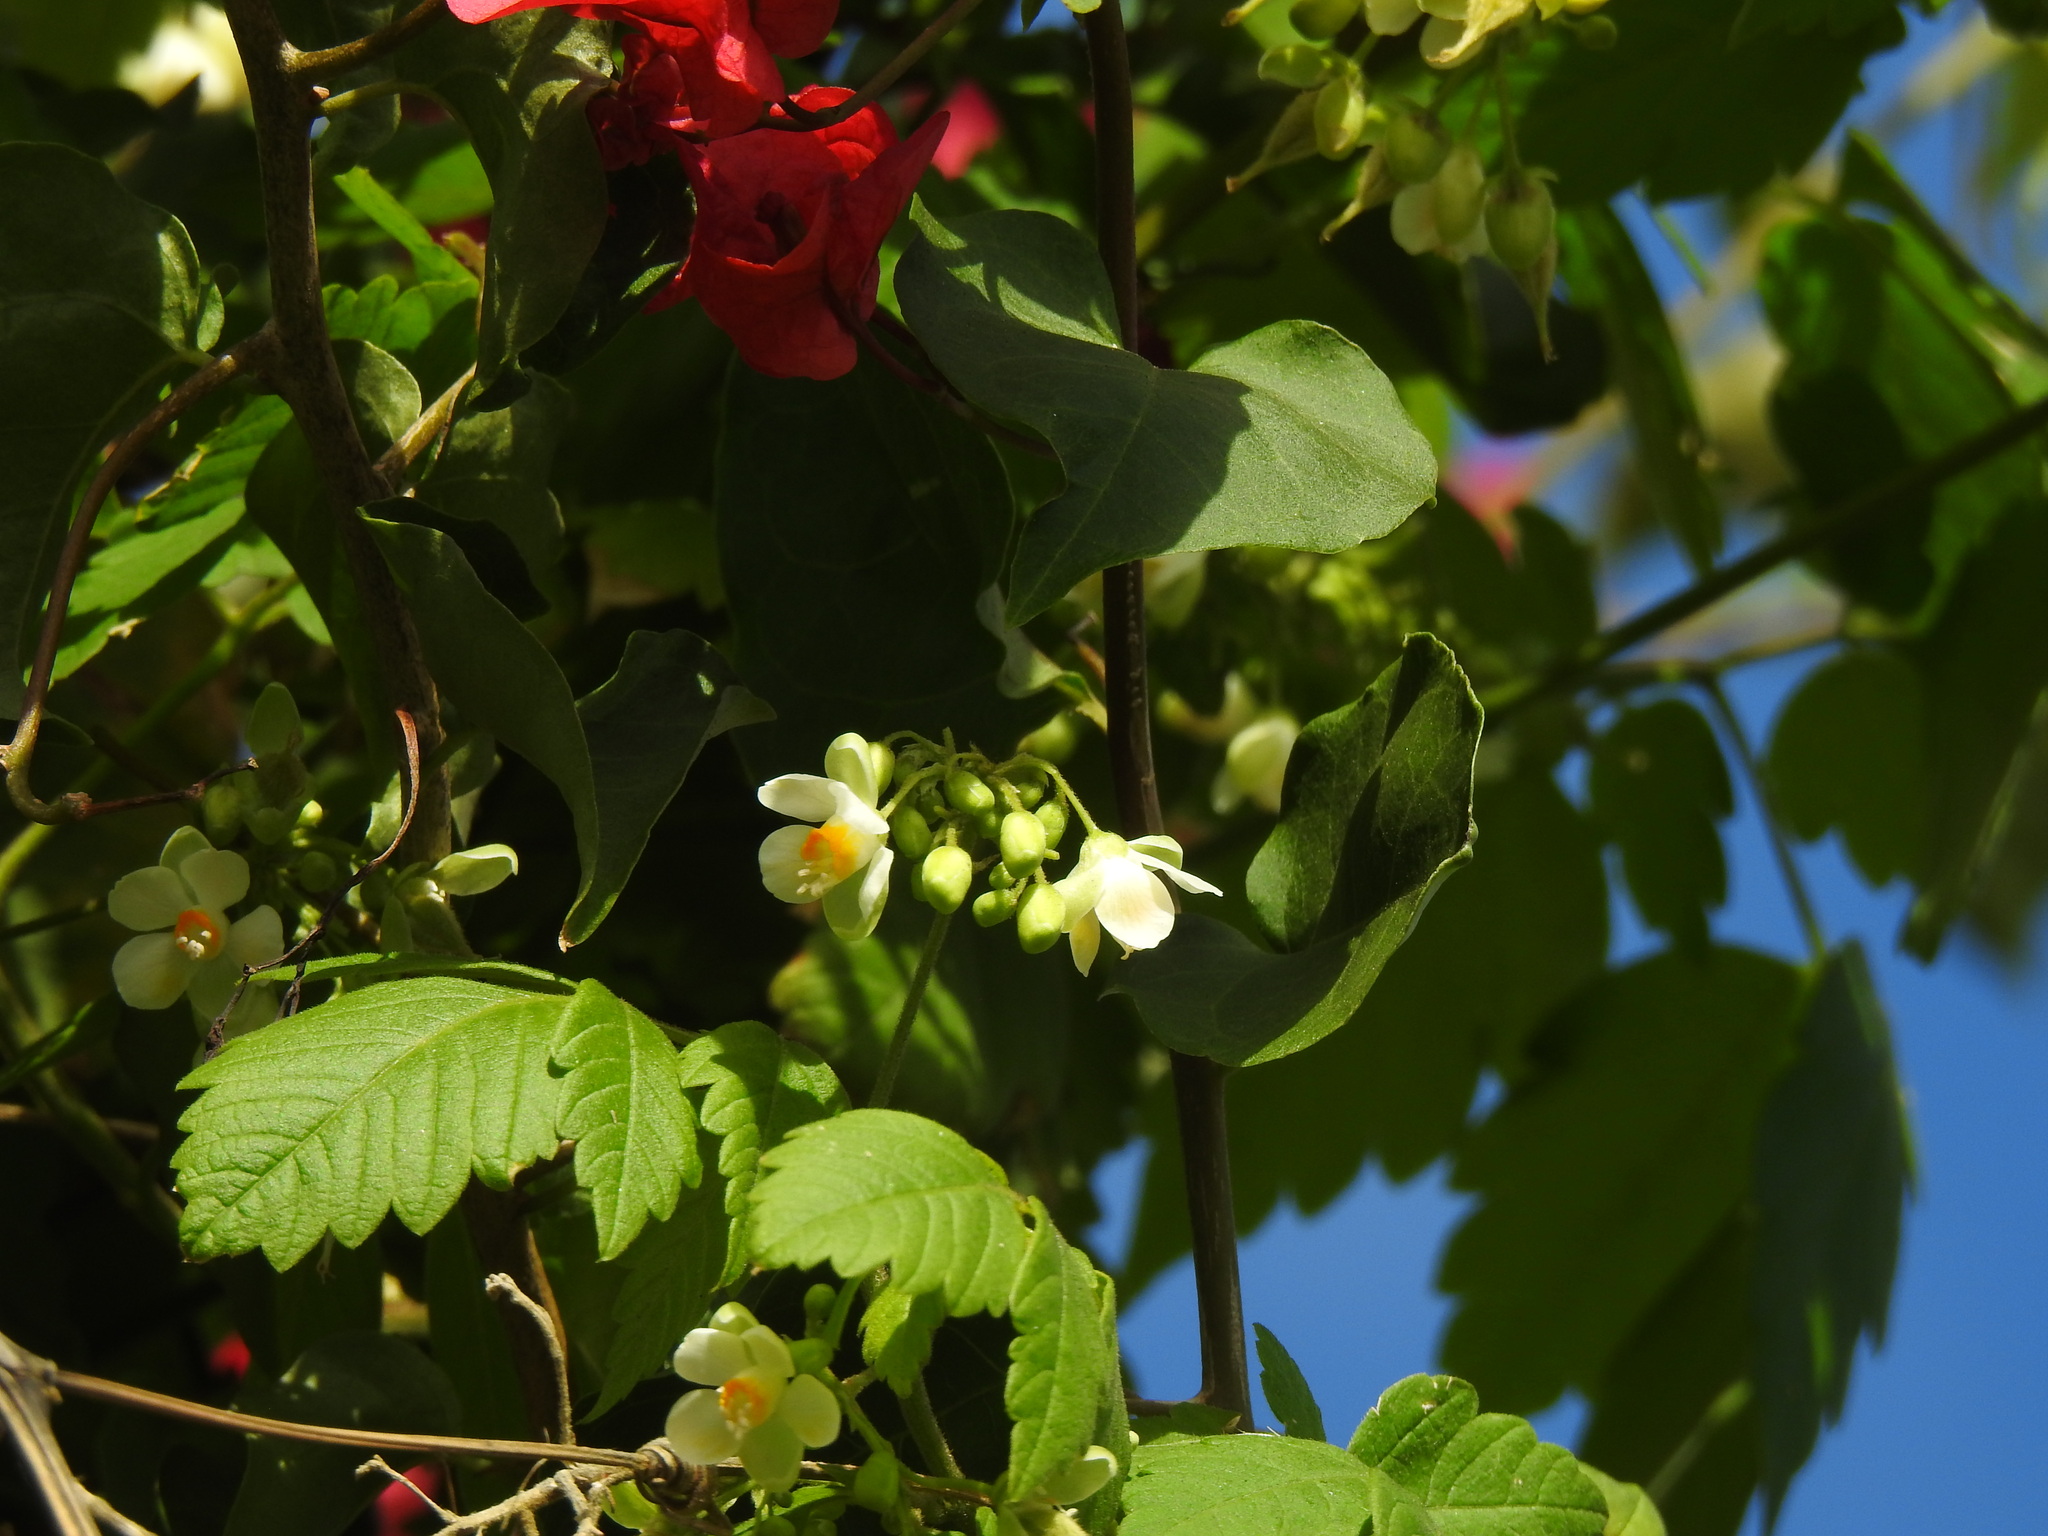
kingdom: Plantae
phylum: Tracheophyta
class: Magnoliopsida
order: Sapindales
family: Sapindaceae
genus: Cardiospermum
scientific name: Cardiospermum grandiflorum
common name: Balloon vine
